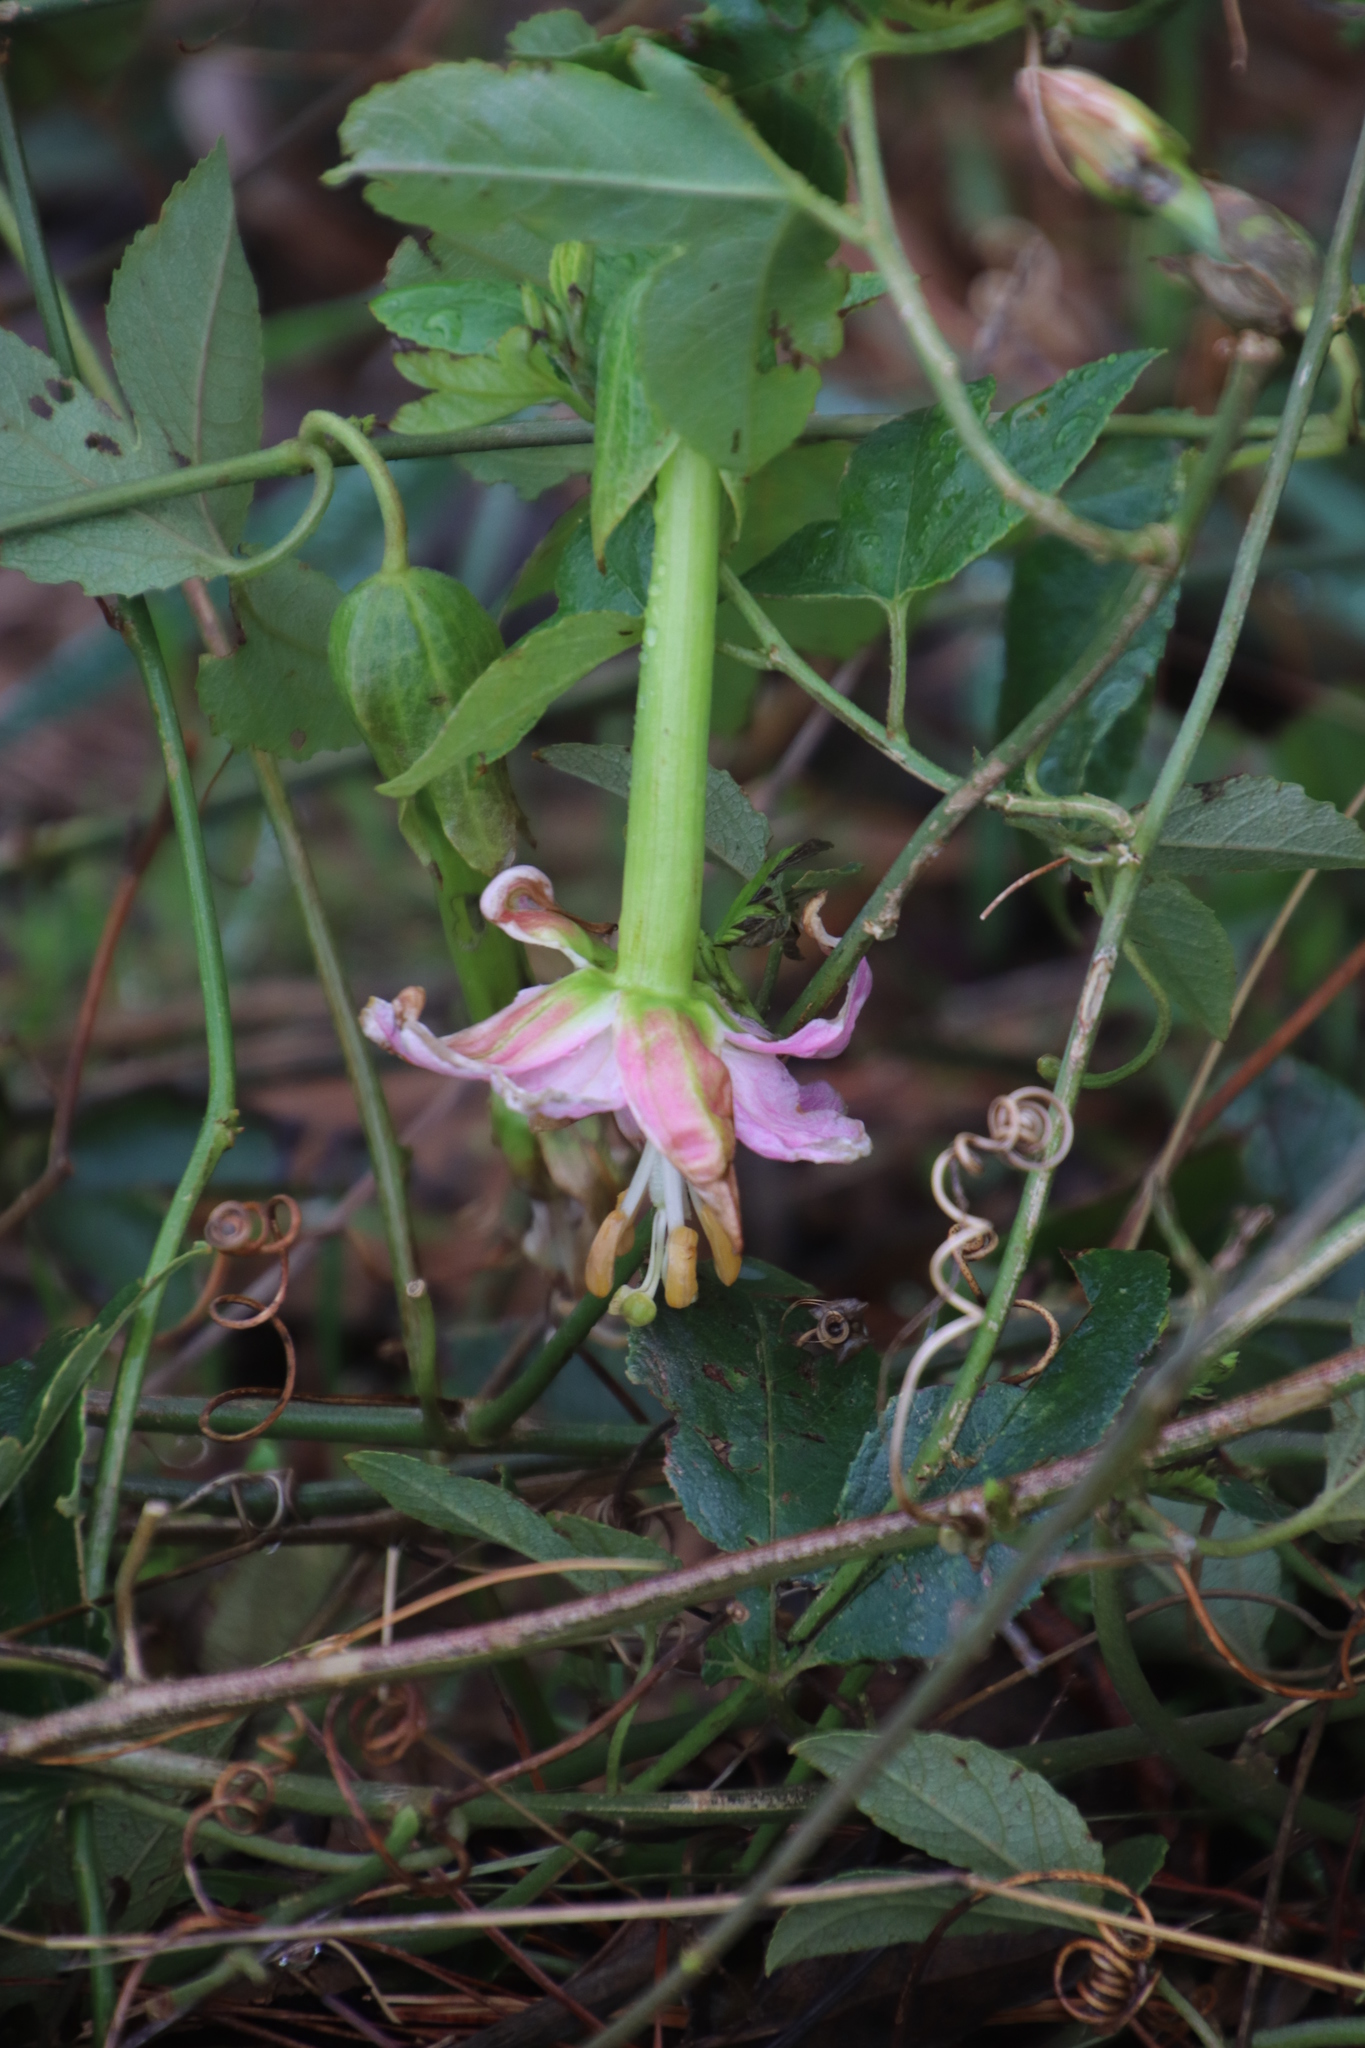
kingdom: Plantae
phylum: Tracheophyta
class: Magnoliopsida
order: Malpighiales
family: Passifloraceae
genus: Passiflora
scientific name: Passiflora tarminiana
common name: Banana poka
